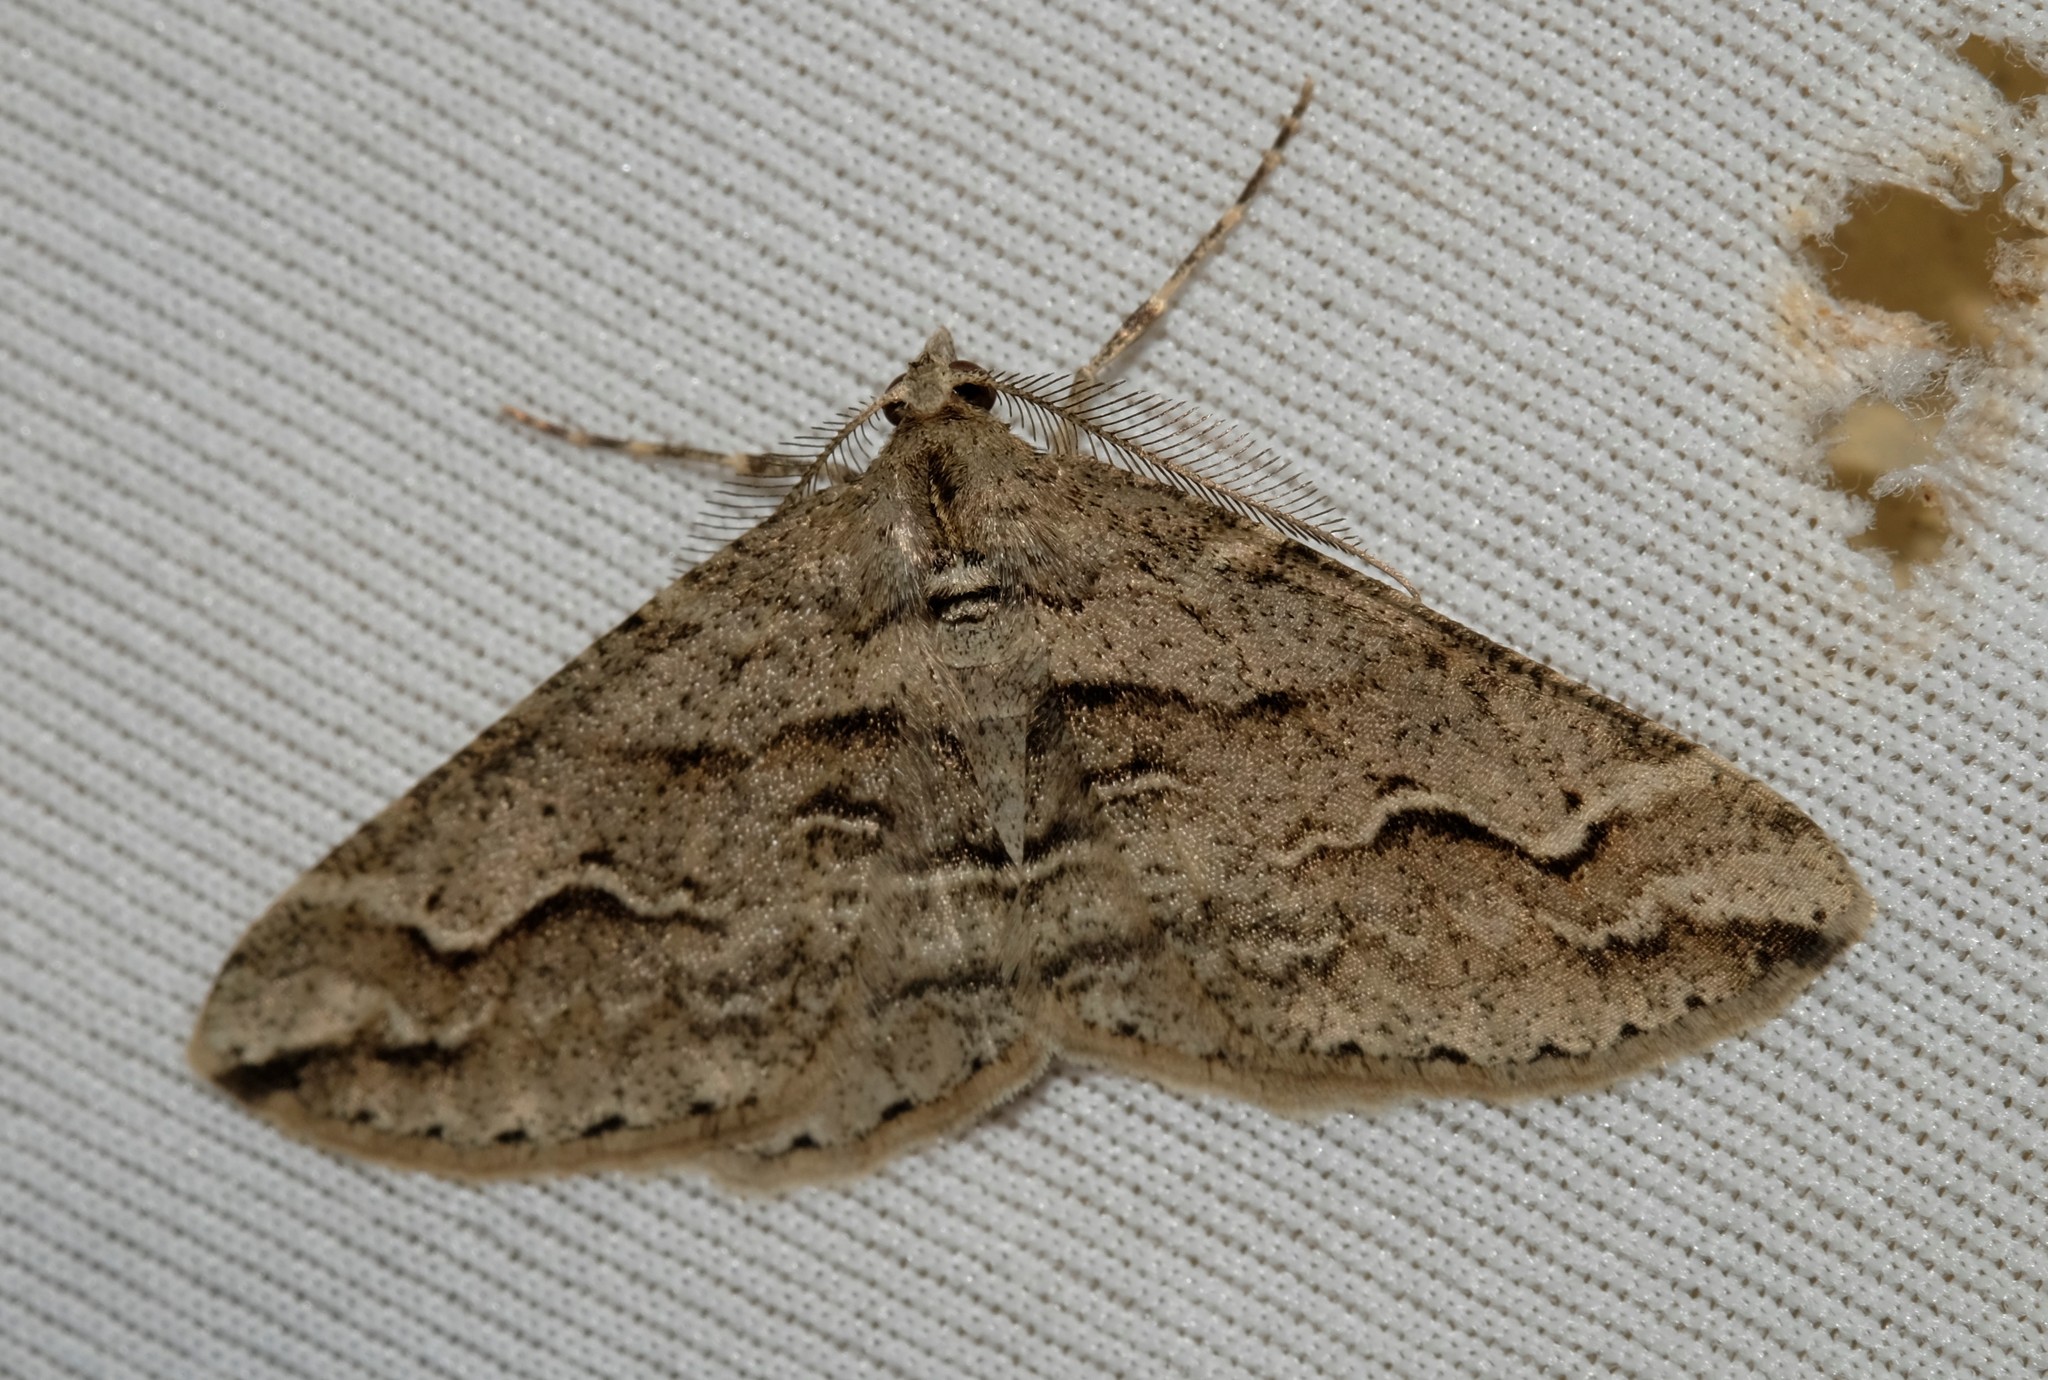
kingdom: Animalia
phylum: Arthropoda
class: Insecta
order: Lepidoptera
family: Geometridae
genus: Syneora
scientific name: Syneora fractata
